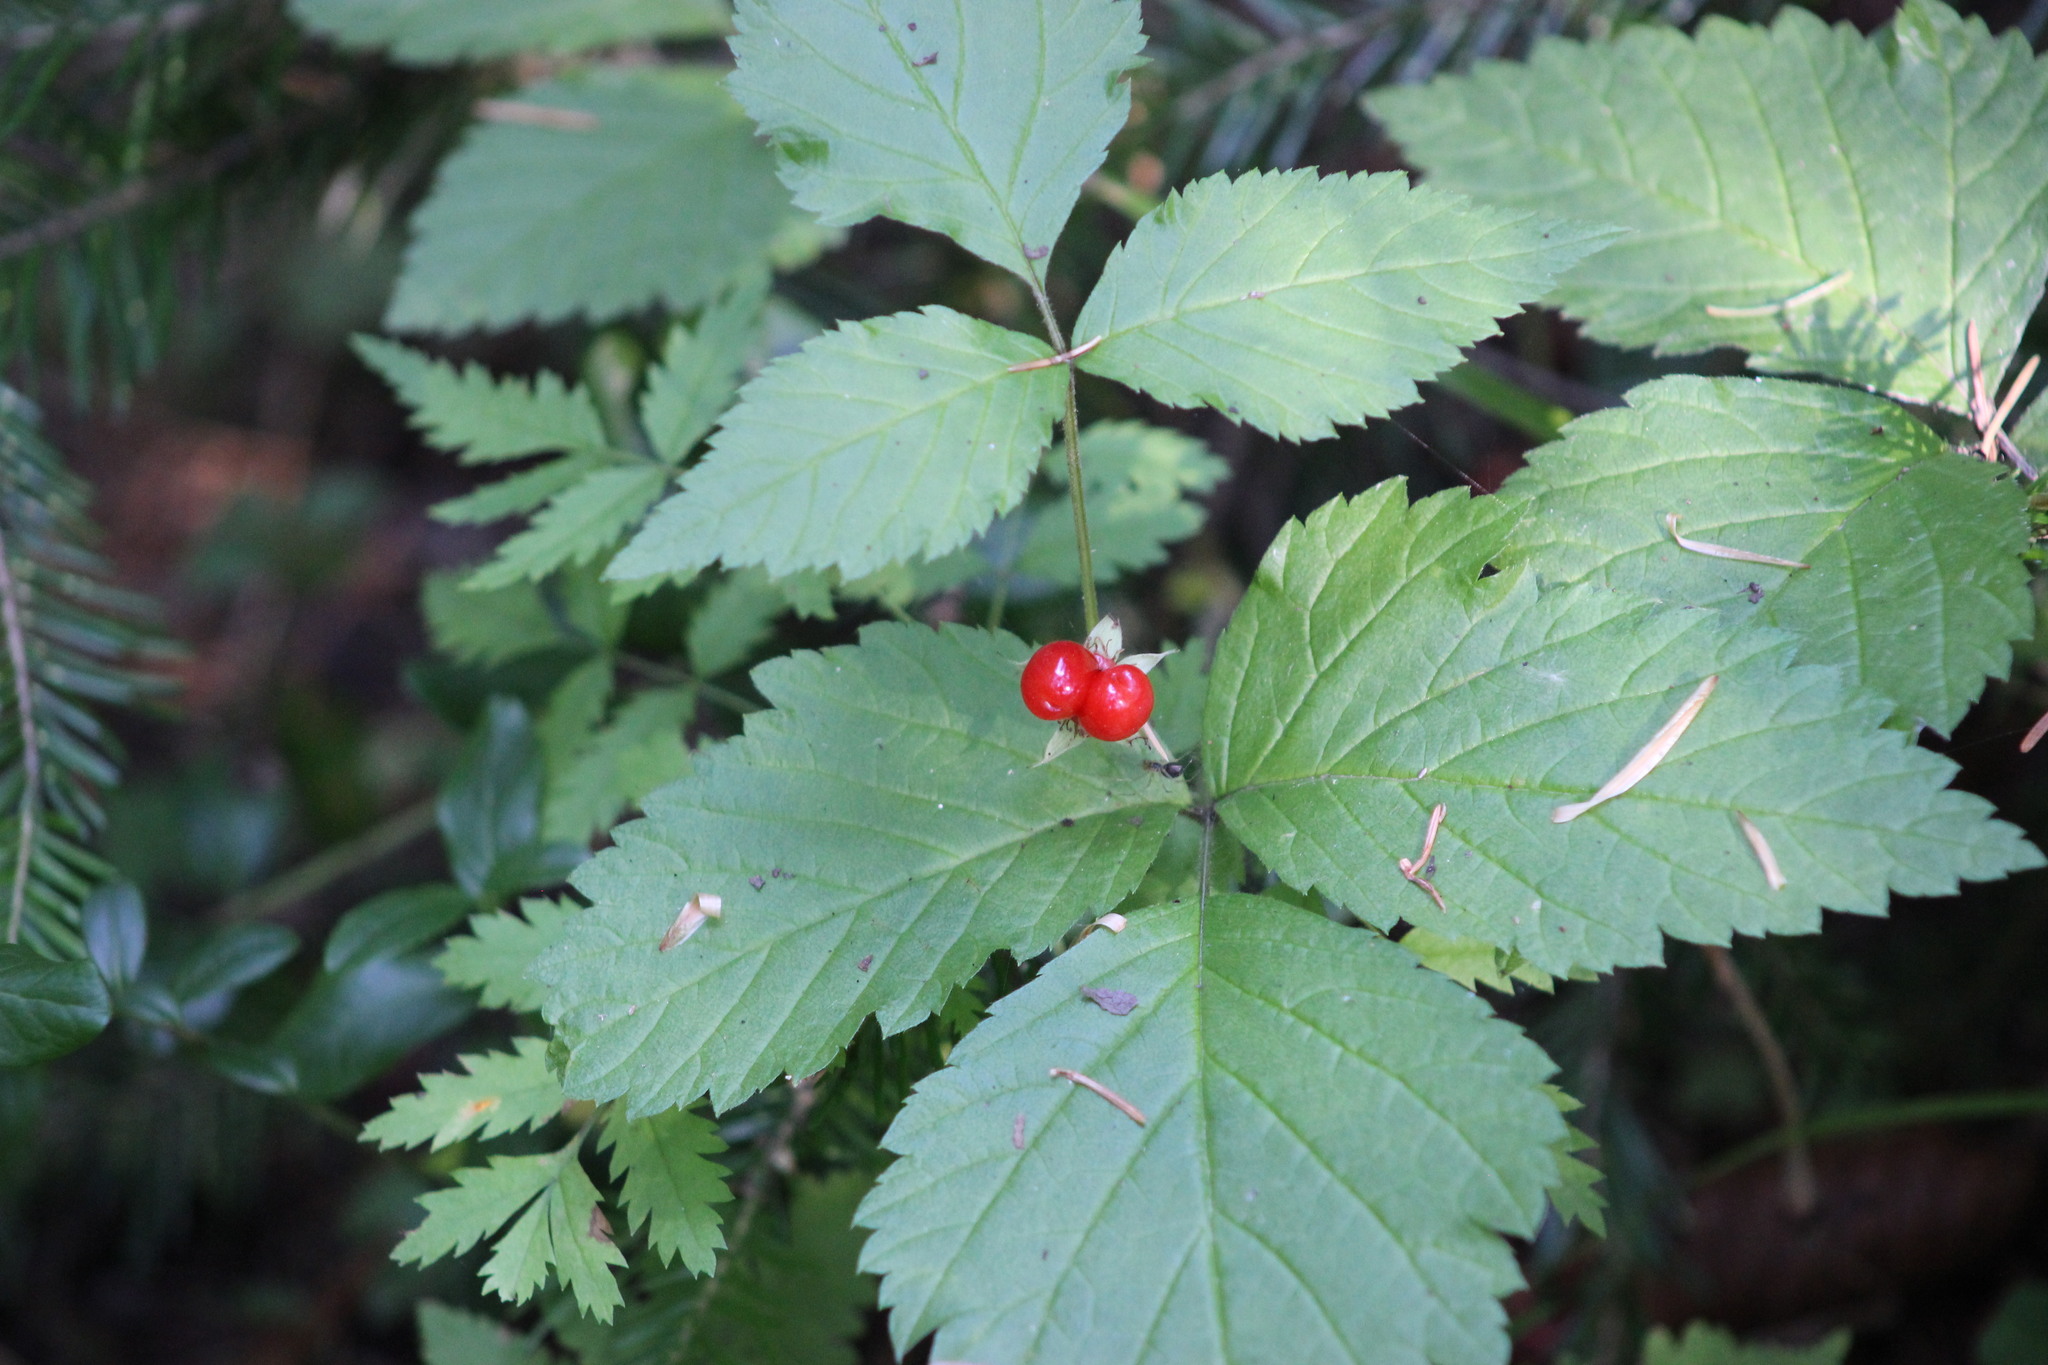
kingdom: Plantae
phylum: Tracheophyta
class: Magnoliopsida
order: Rosales
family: Rosaceae
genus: Rubus
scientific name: Rubus saxatilis
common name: Stone bramble
